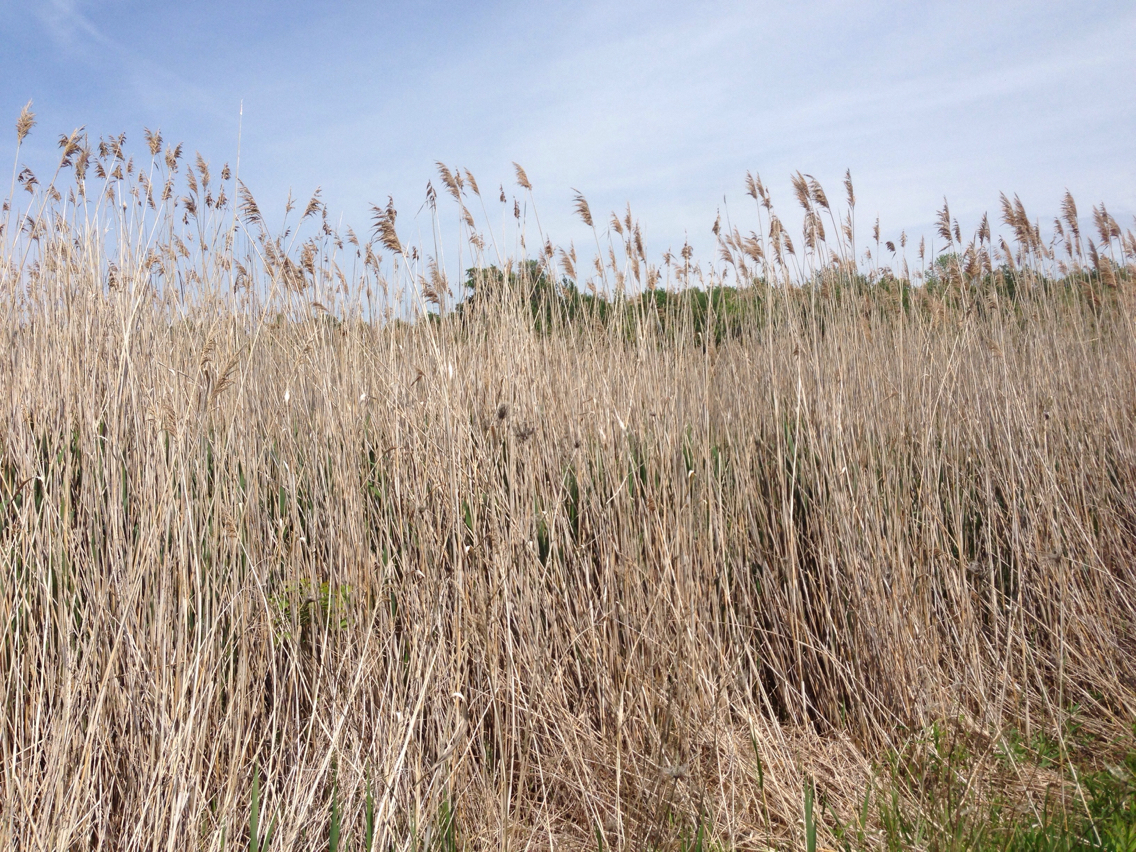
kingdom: Plantae
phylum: Tracheophyta
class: Liliopsida
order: Poales
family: Poaceae
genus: Phragmites
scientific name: Phragmites australis
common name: Common reed
